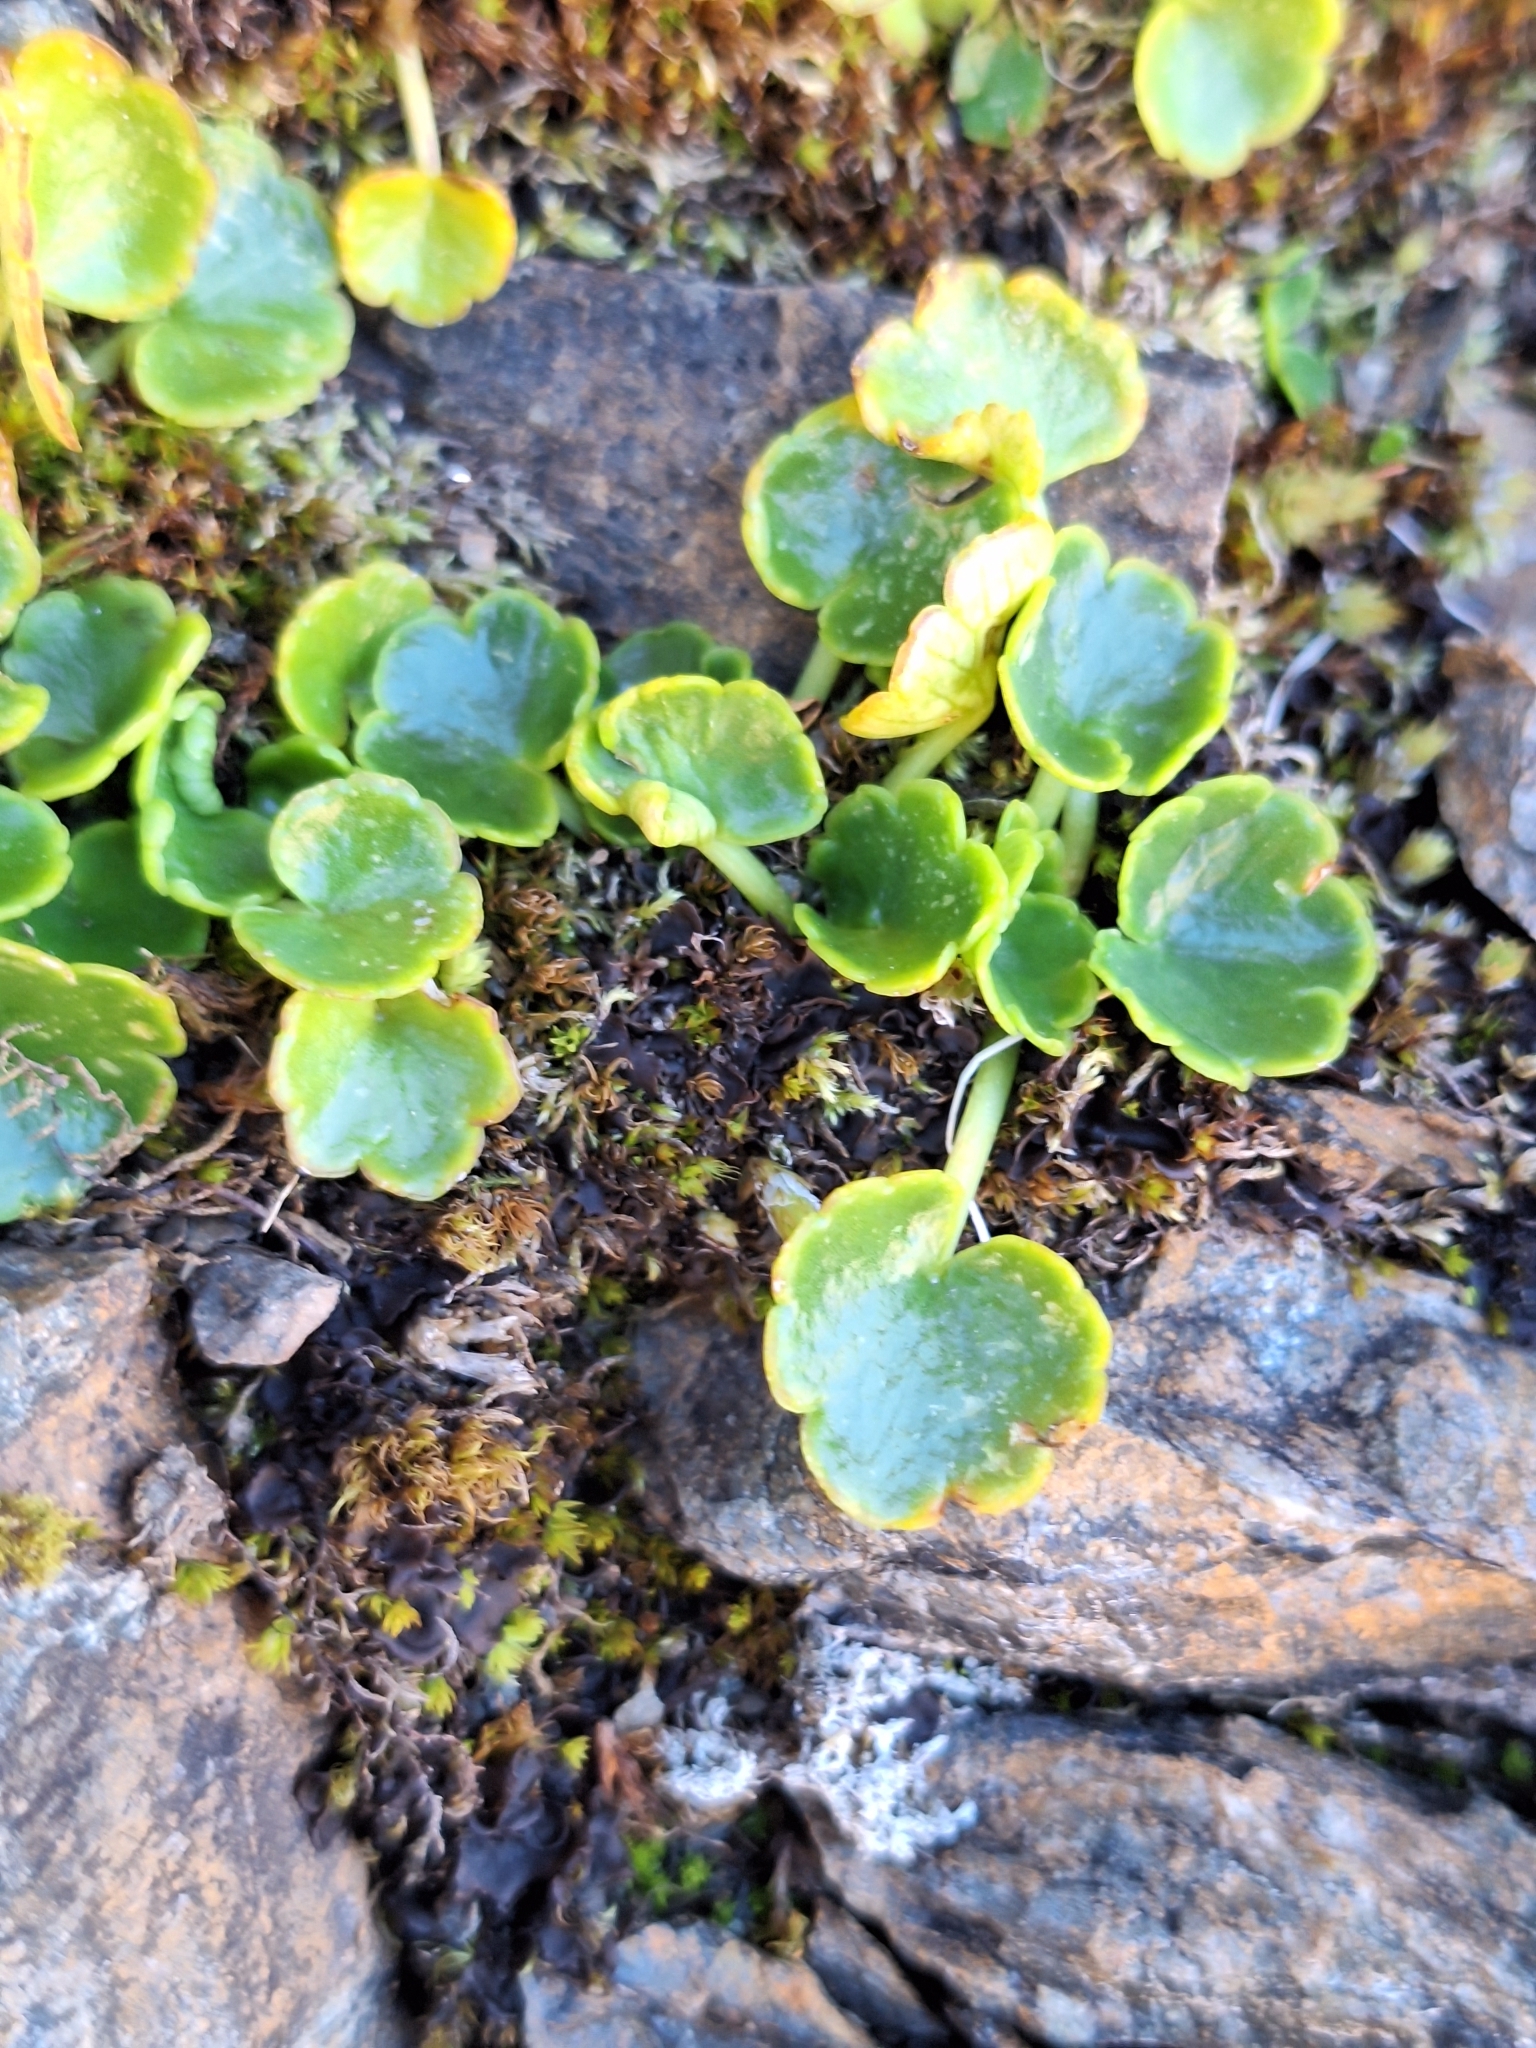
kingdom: Plantae
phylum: Tracheophyta
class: Magnoliopsida
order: Apiales
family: Apiaceae
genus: Azorella
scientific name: Azorella haastii
